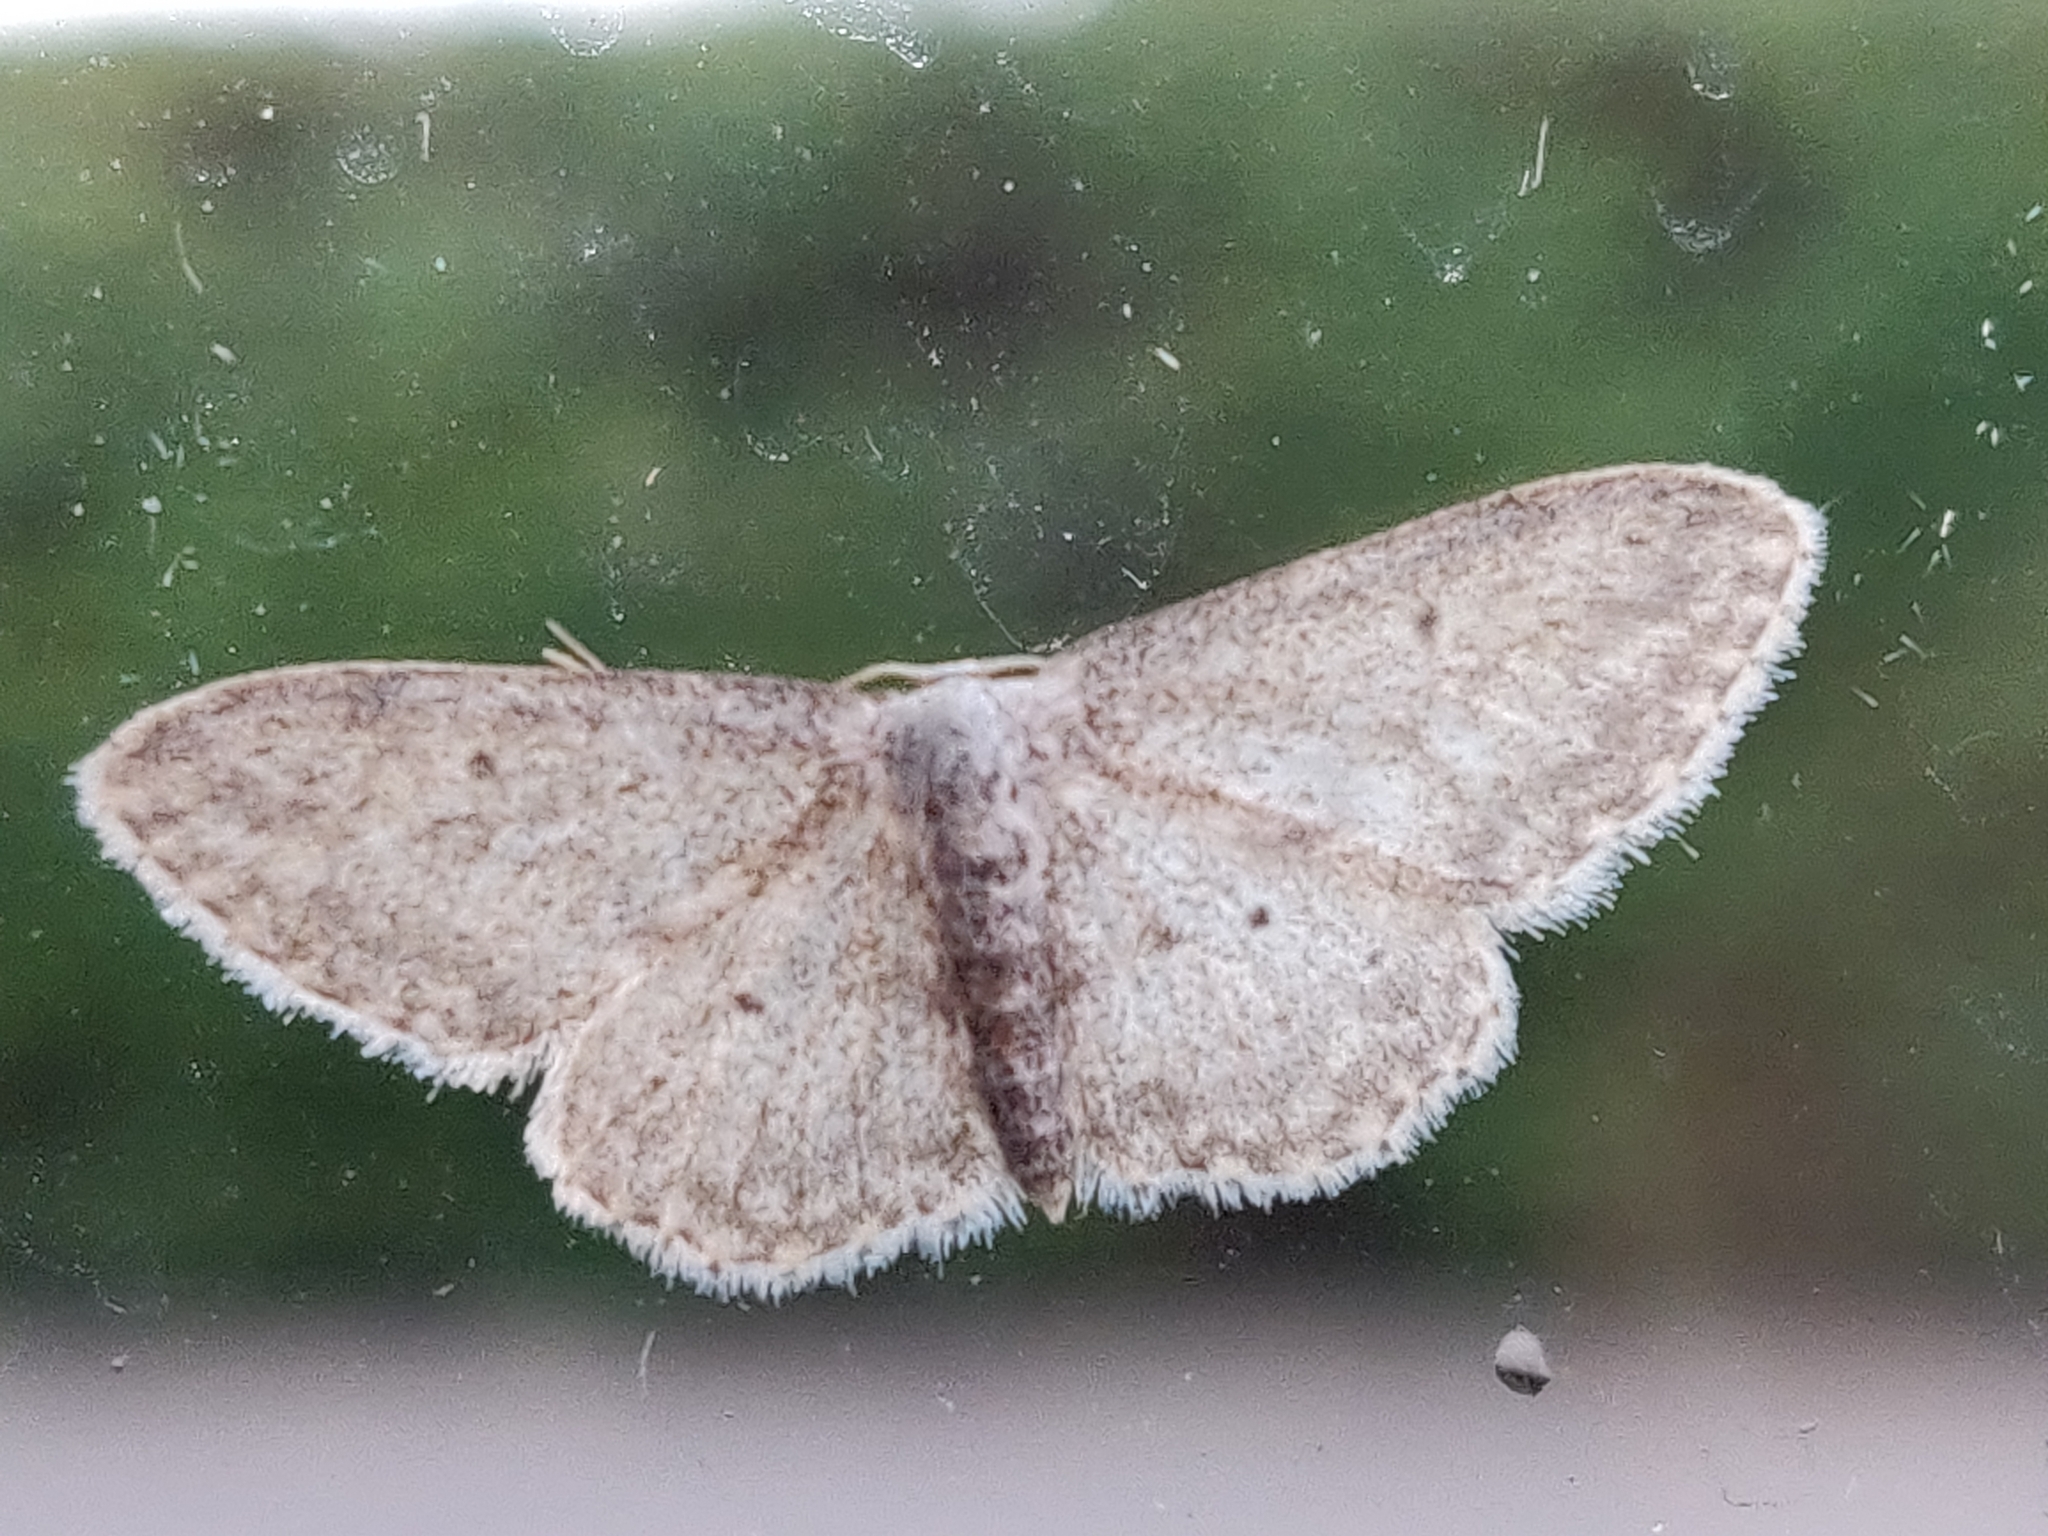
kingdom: Animalia
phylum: Arthropoda
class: Insecta
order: Lepidoptera
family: Geometridae
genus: Idaea
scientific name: Idaea seriata
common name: Small dusty wave
